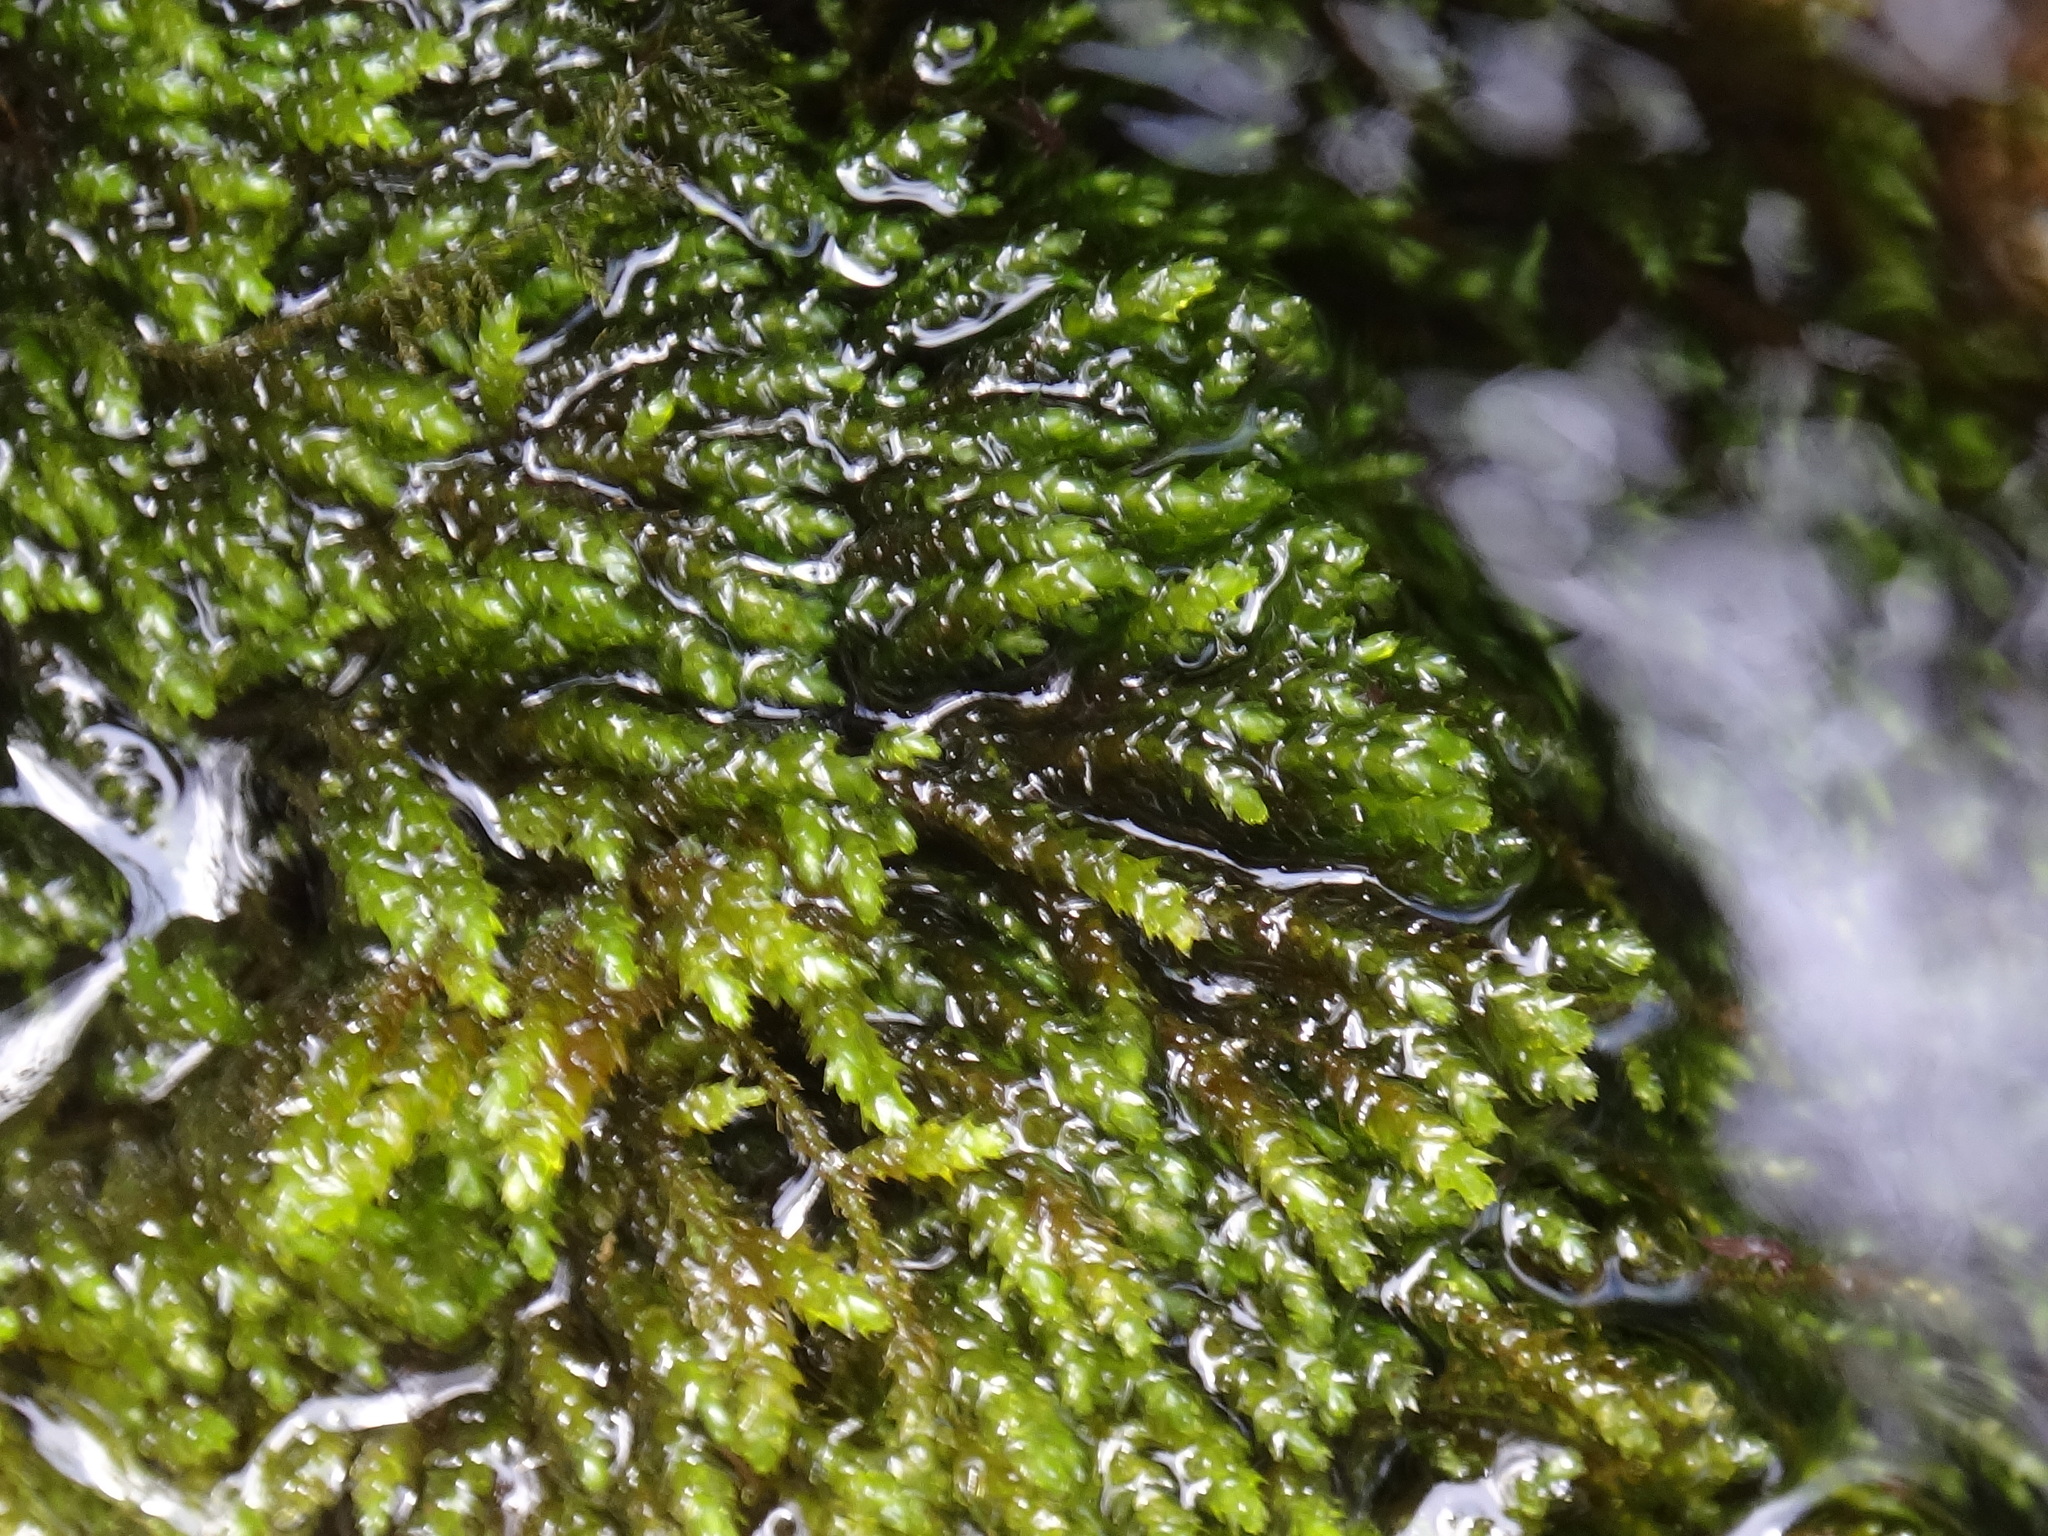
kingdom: Plantae
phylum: Bryophyta
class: Bryopsida
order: Hypnales
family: Brachytheciaceae
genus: Rhynchostegium
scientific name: Rhynchostegium riparioides
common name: Platyhypnidium moss
